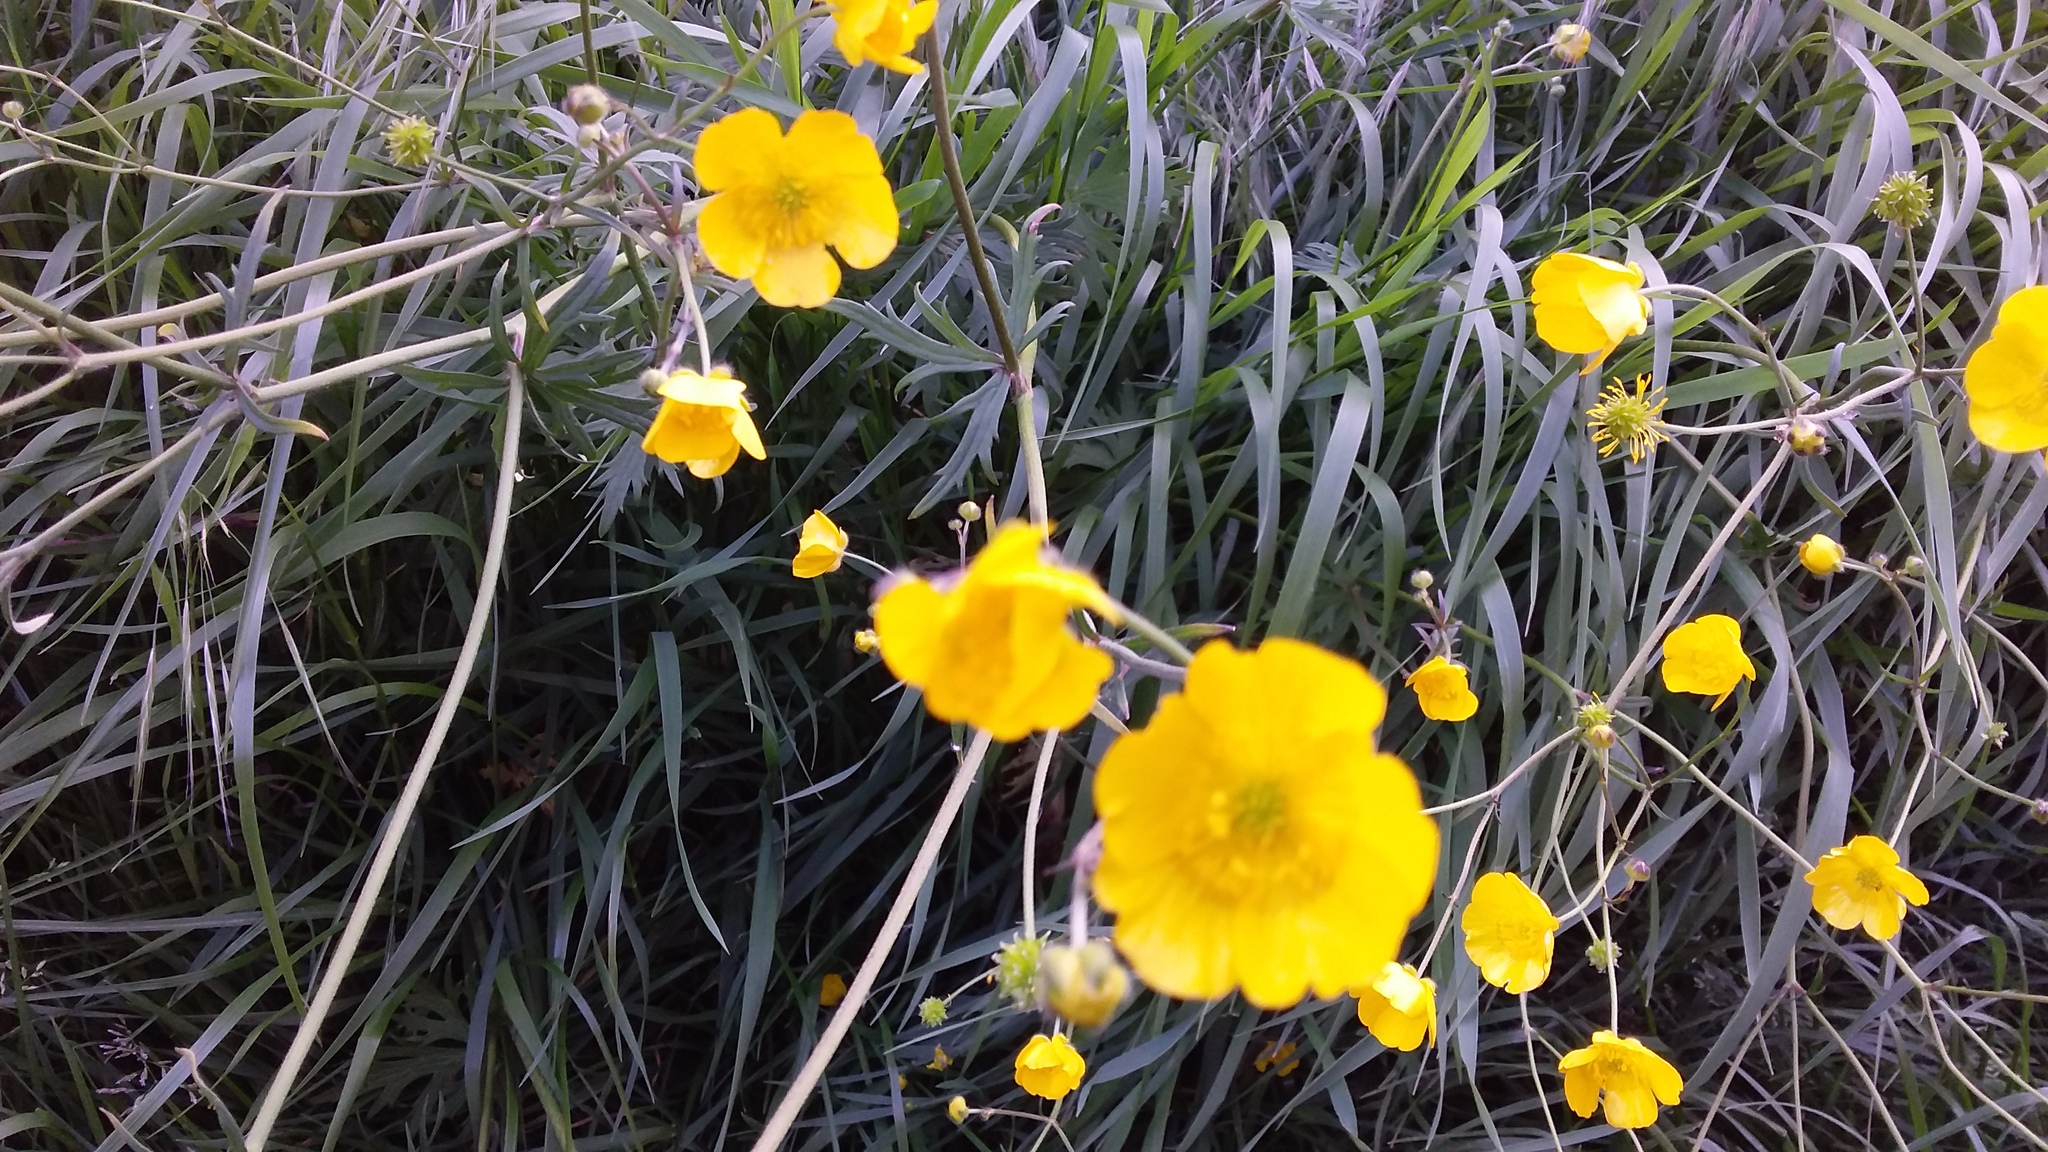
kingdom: Plantae
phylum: Tracheophyta
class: Magnoliopsida
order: Ranunculales
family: Ranunculaceae
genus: Ranunculus
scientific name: Ranunculus acris
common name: Meadow buttercup
